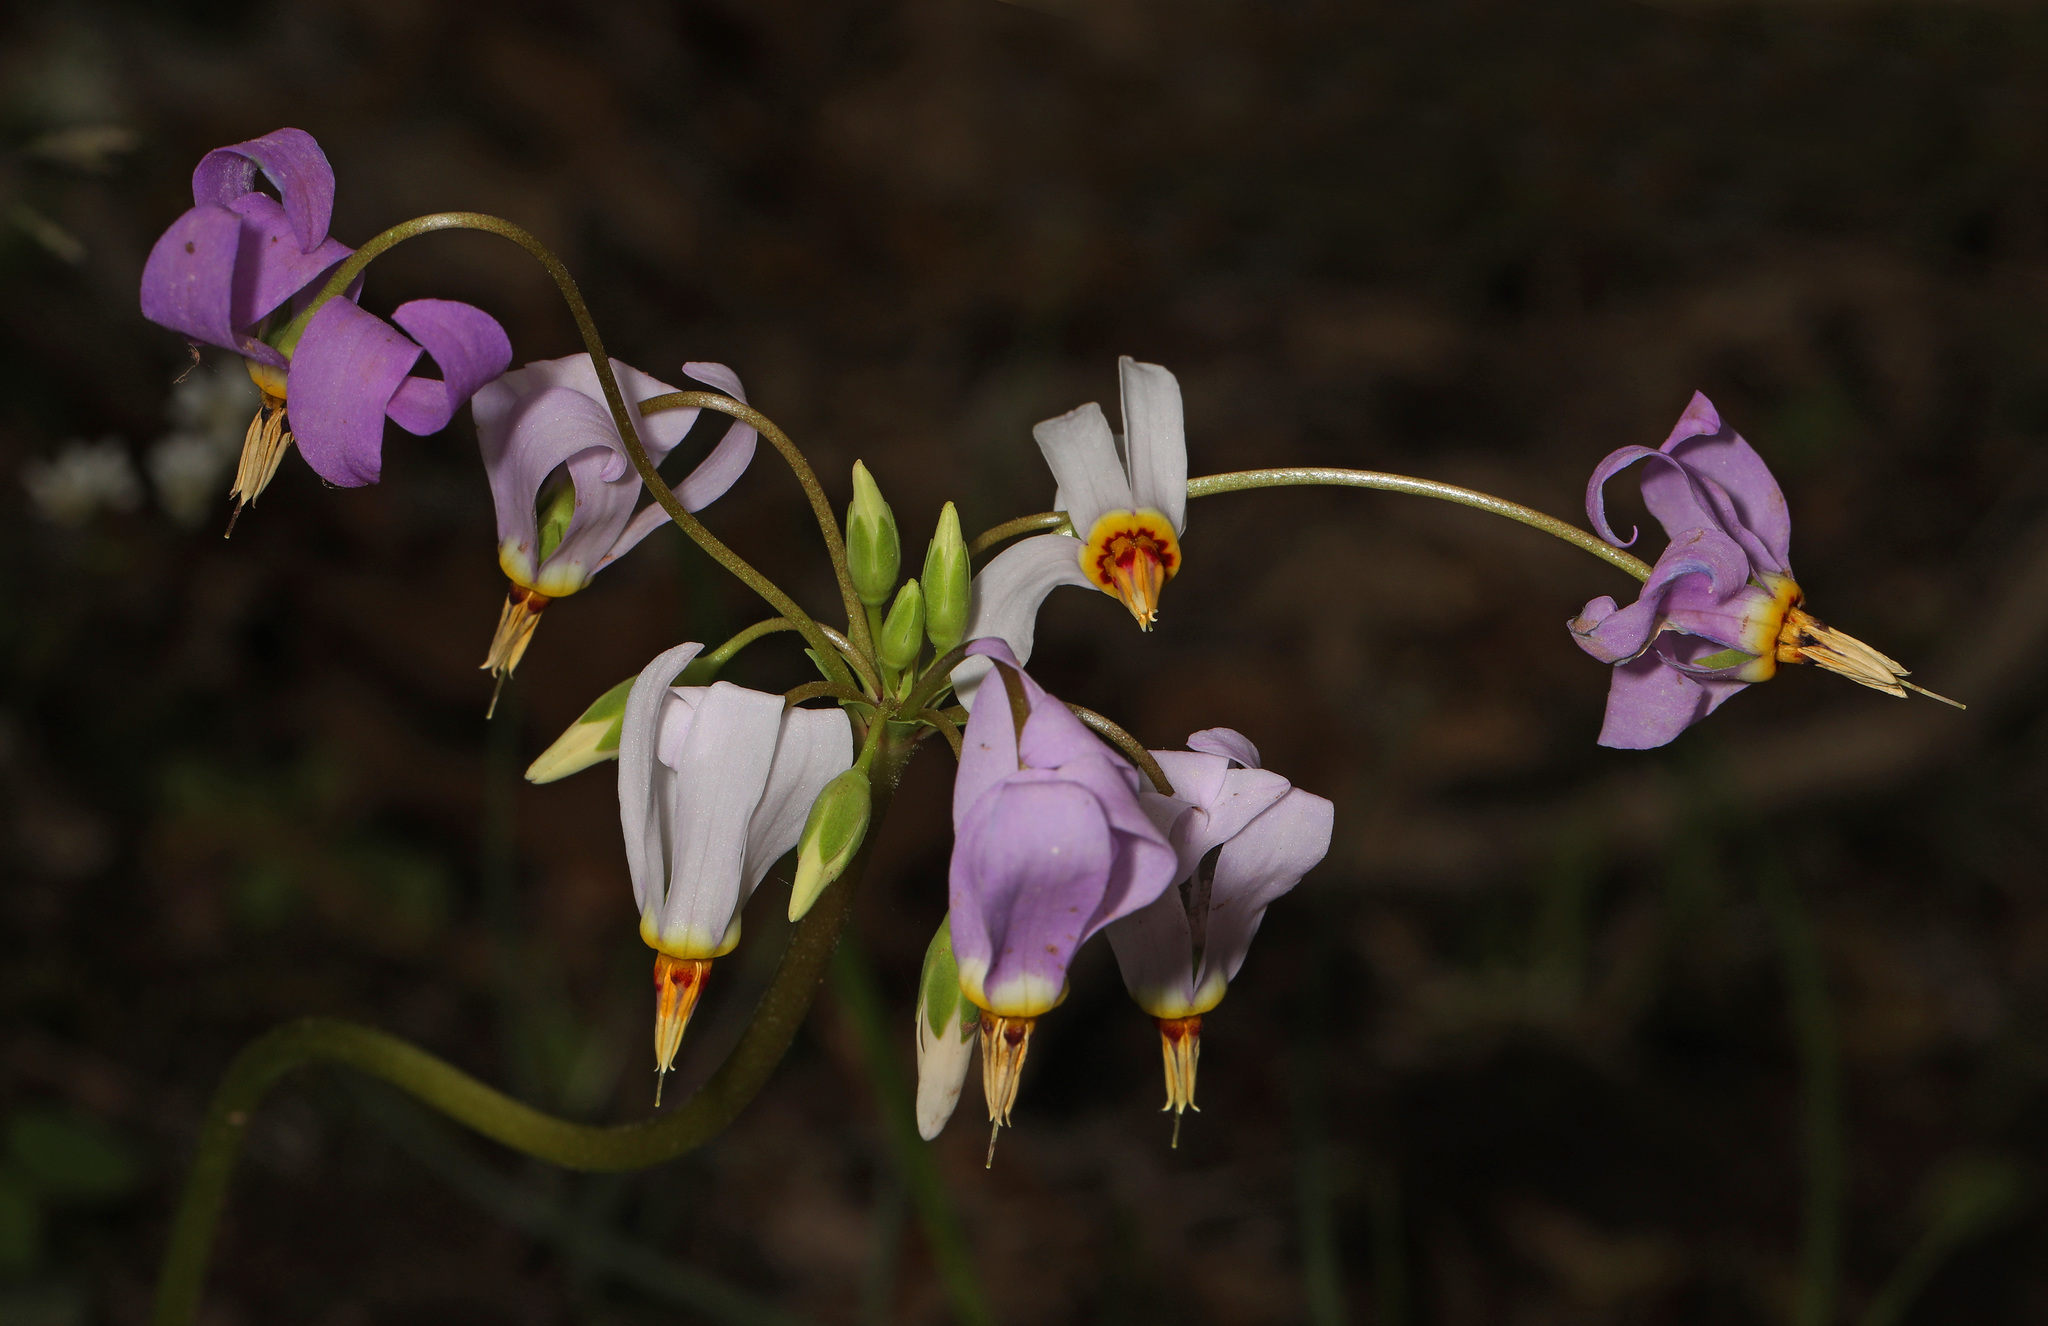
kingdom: Plantae
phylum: Tracheophyta
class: Magnoliopsida
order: Ericales
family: Primulaceae
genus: Dodecatheon
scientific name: Dodecatheon meadia
